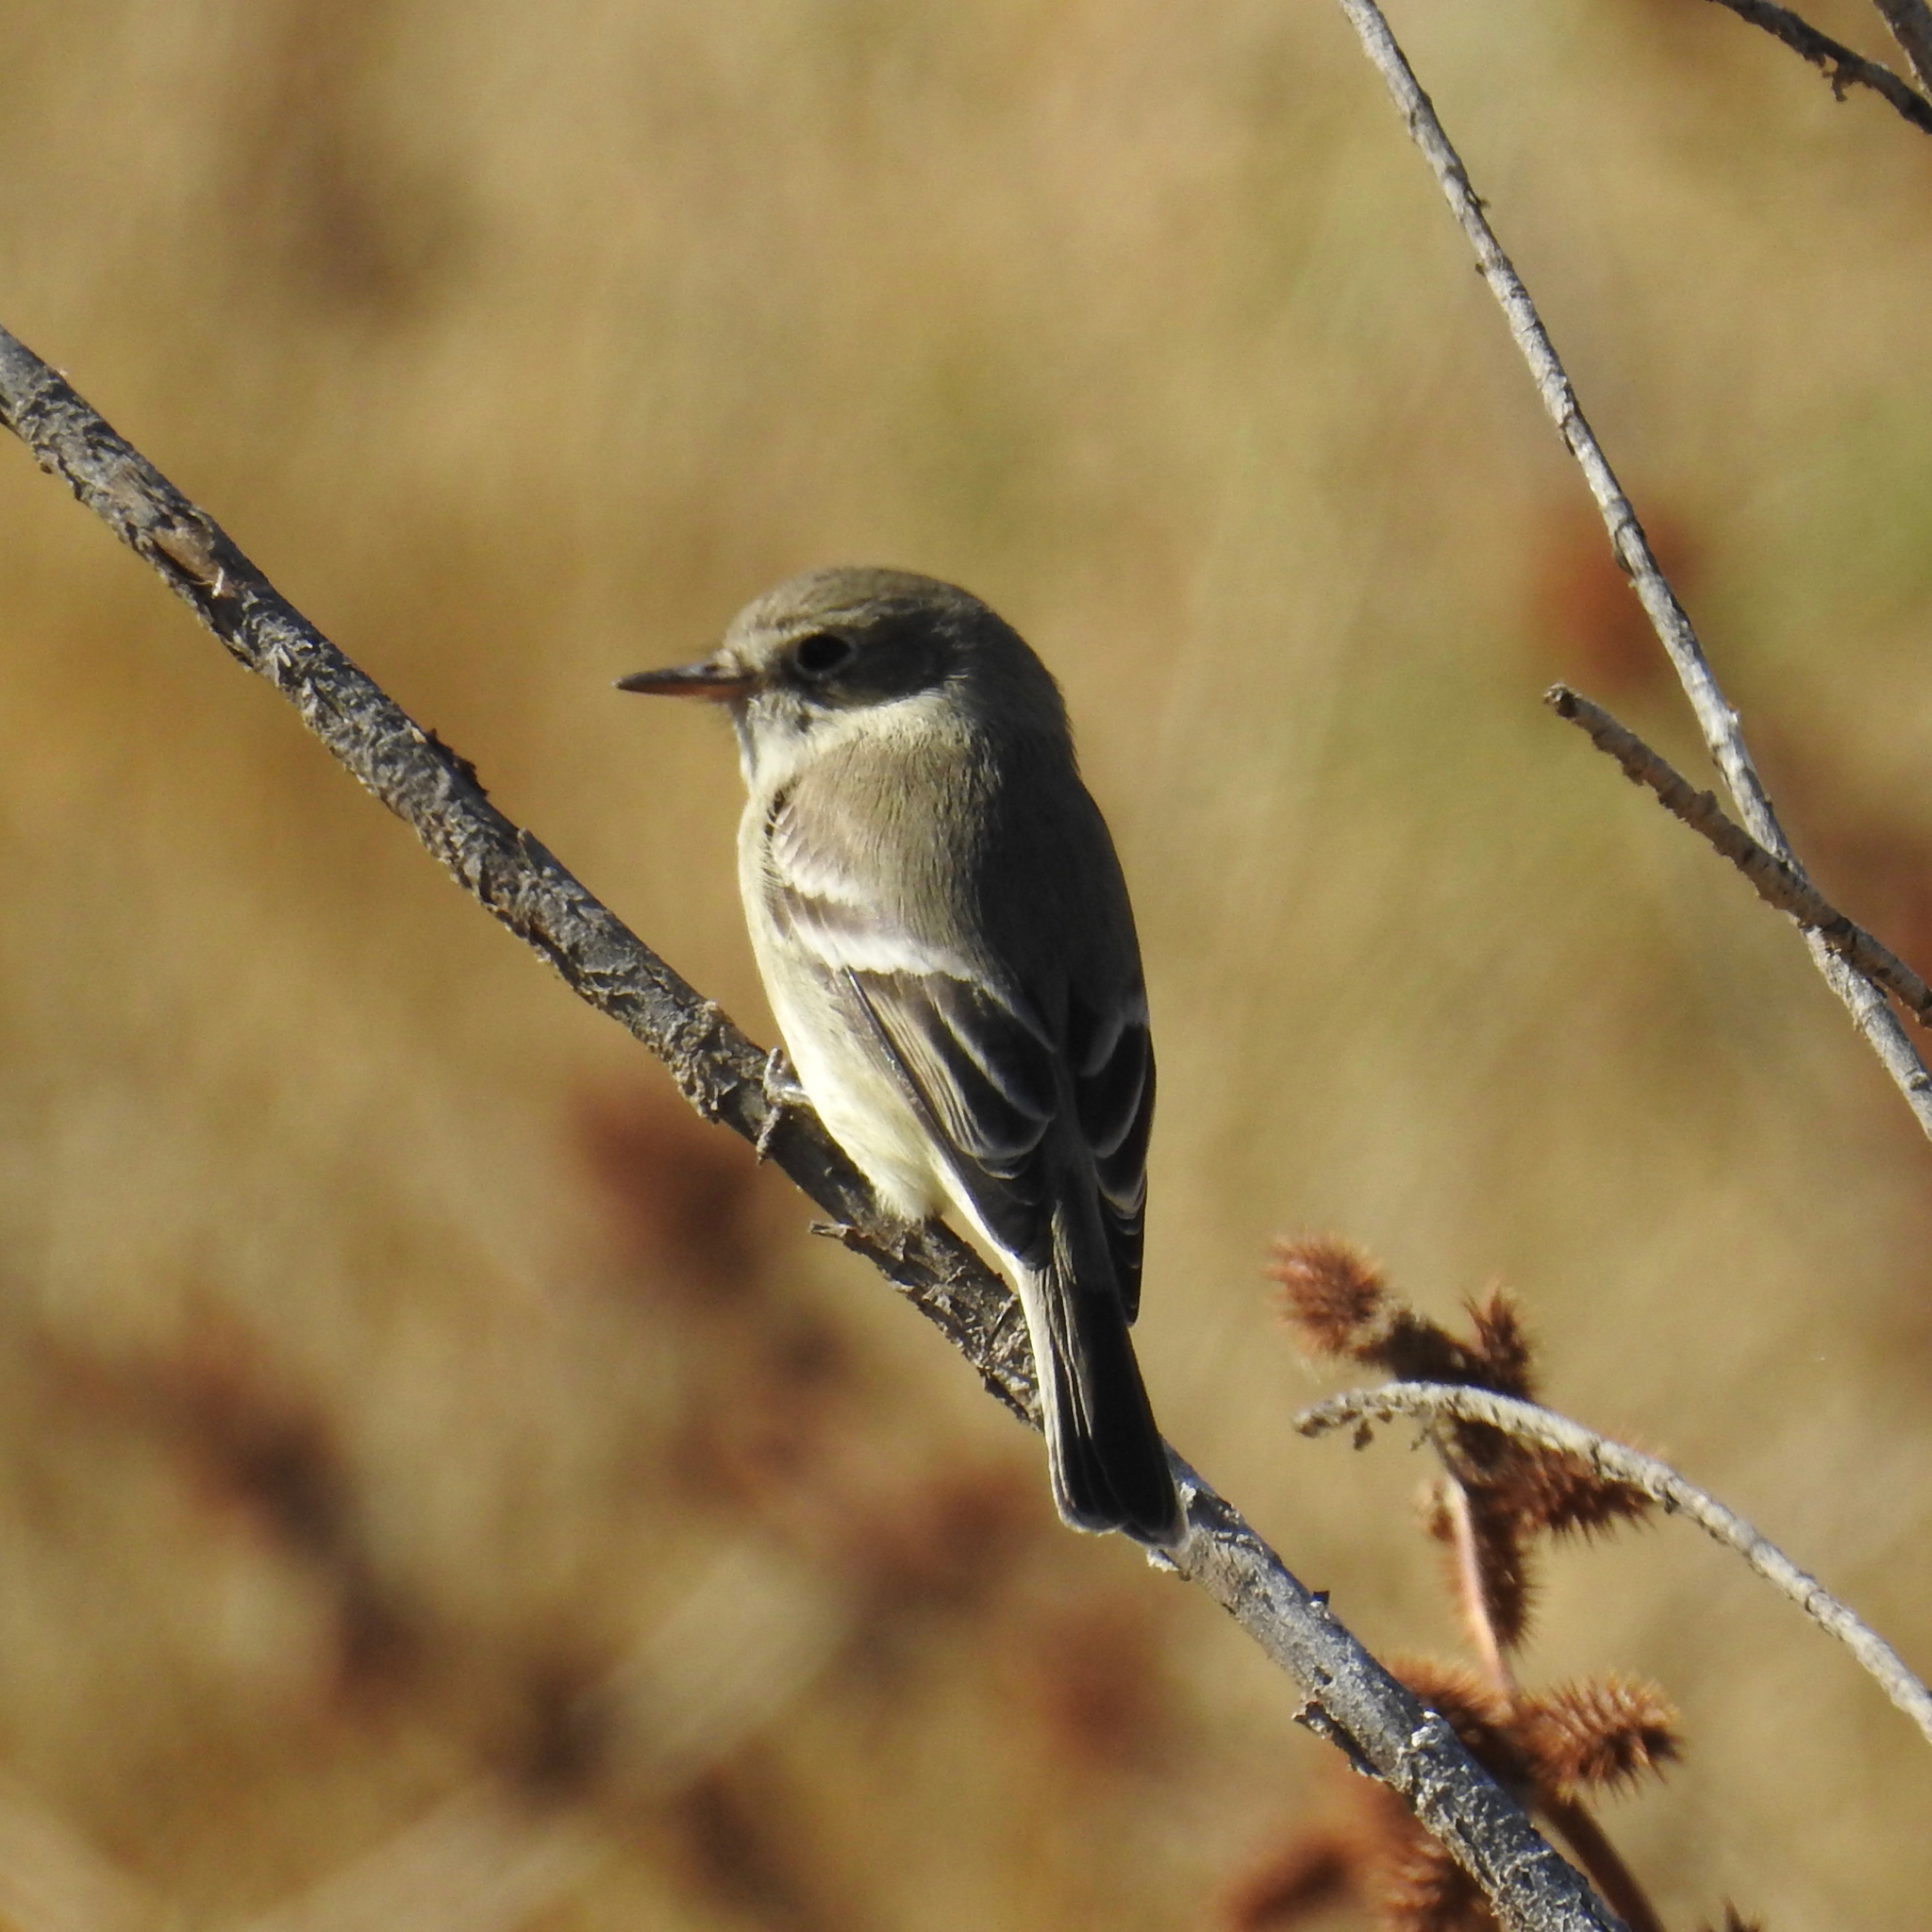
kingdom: Animalia
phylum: Chordata
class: Aves
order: Passeriformes
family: Tyrannidae
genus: Empidonax
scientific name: Empidonax wrightii
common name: Gray flycatcher
